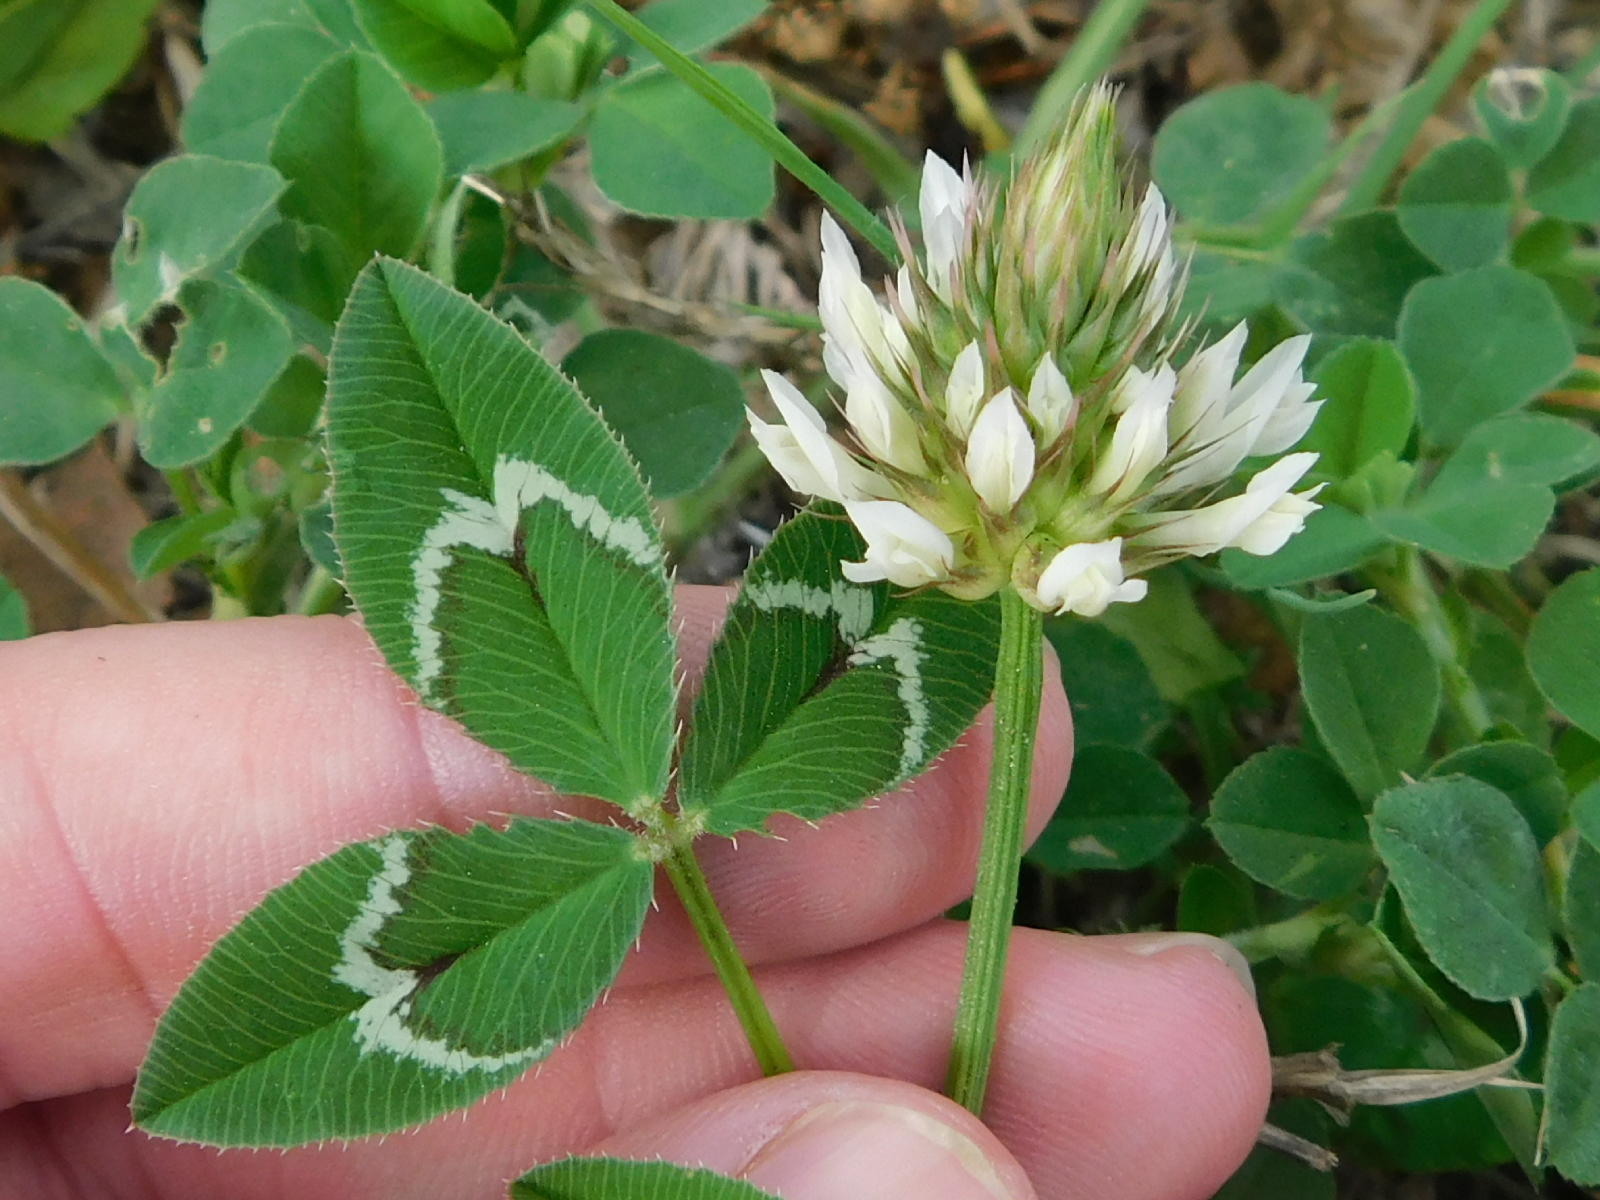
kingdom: Plantae
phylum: Tracheophyta
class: Magnoliopsida
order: Fabales
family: Fabaceae
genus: Trifolium
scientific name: Trifolium vesiculosum
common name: Arrowleaf clover
